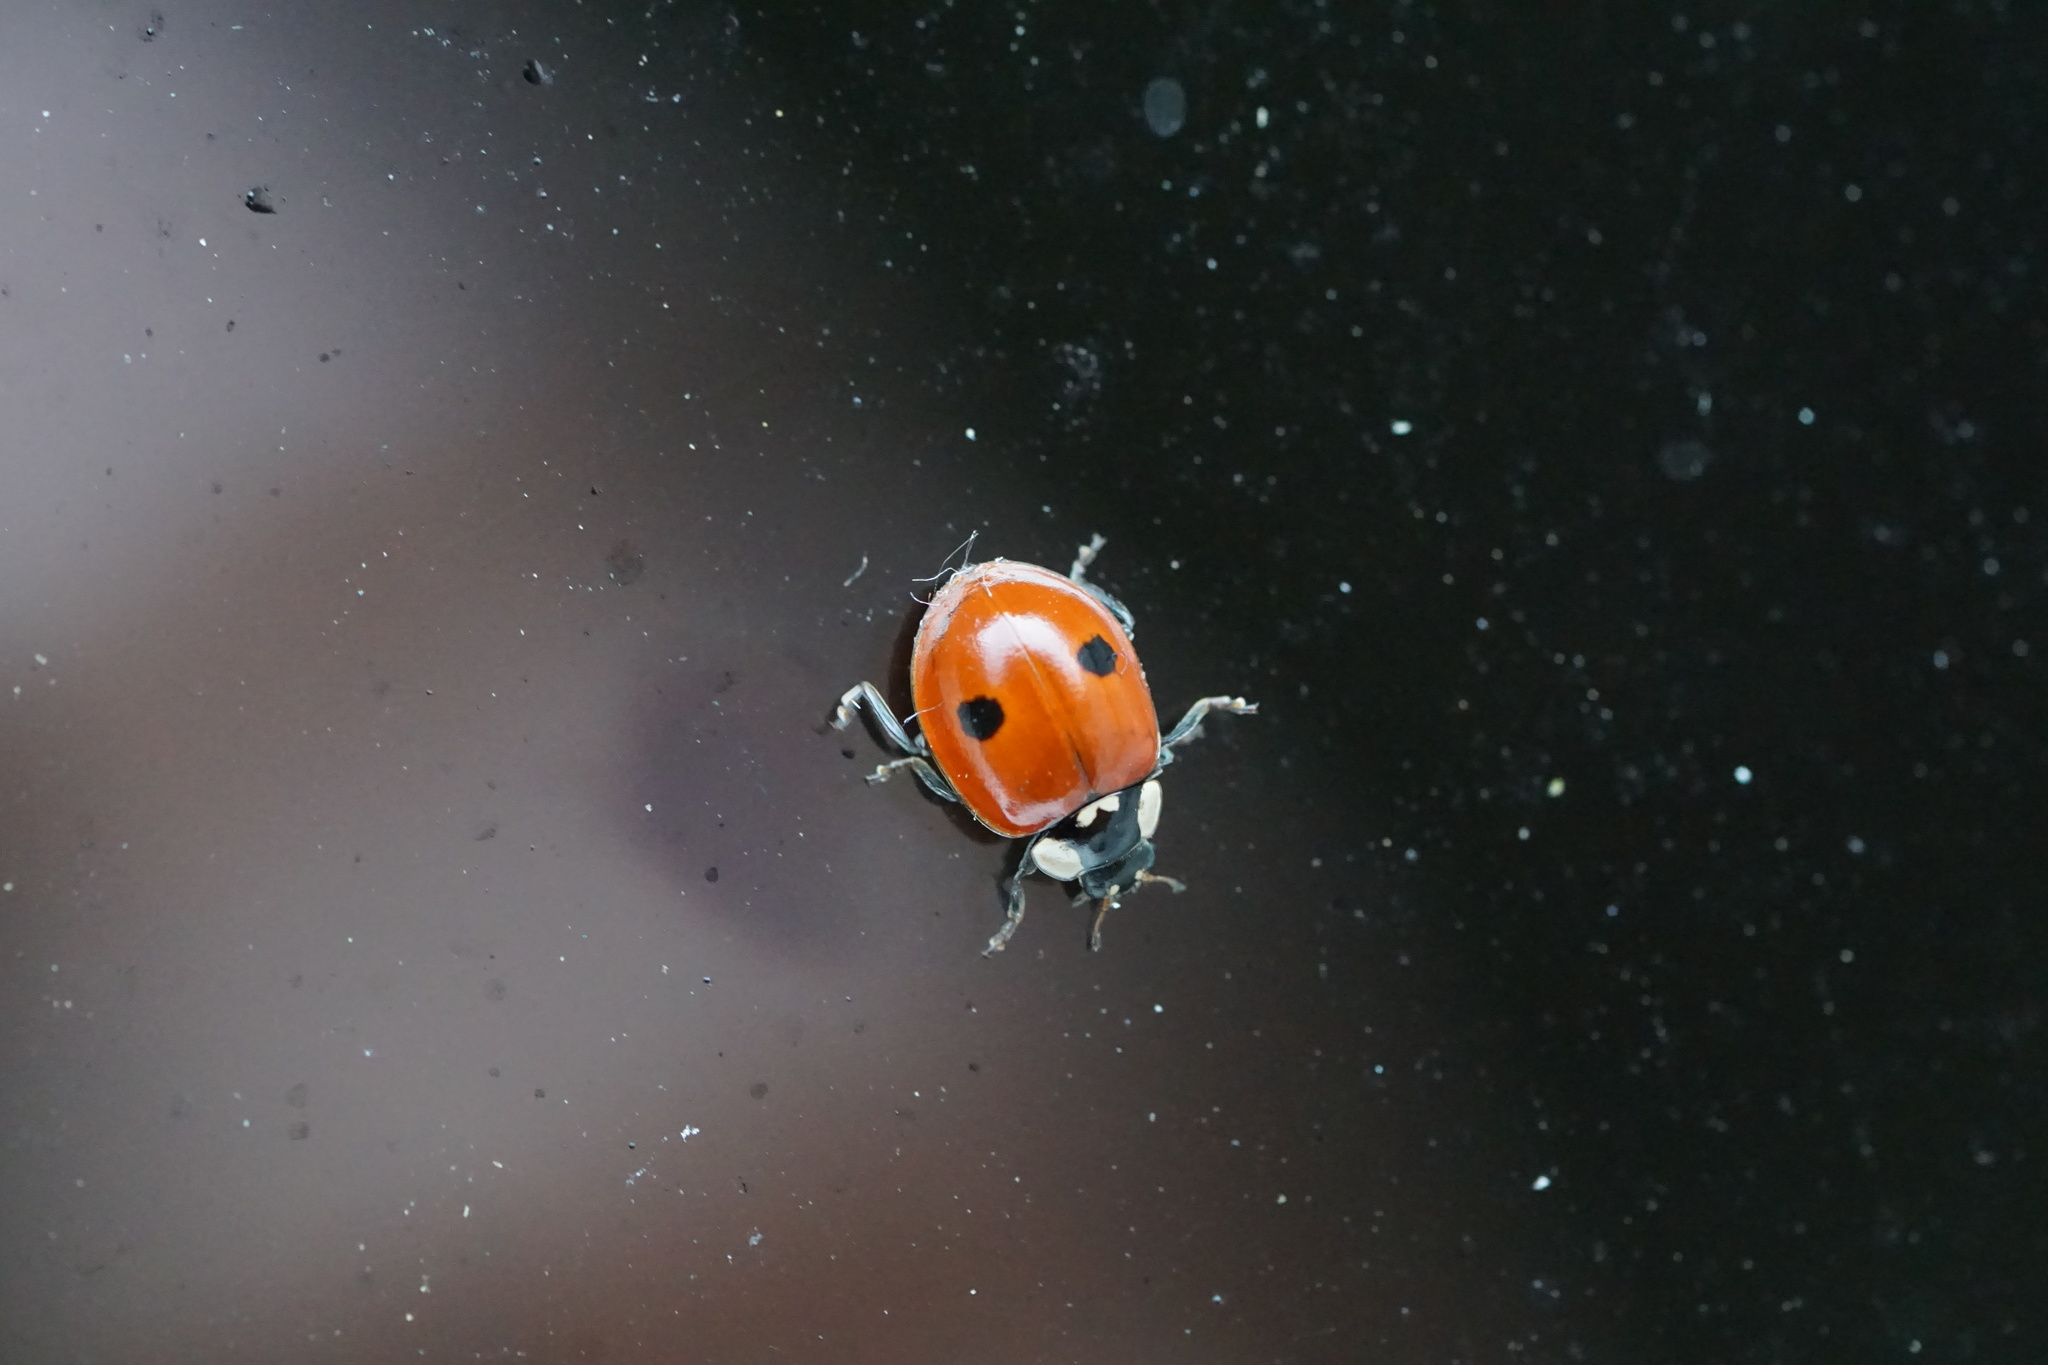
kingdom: Animalia
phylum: Arthropoda
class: Insecta
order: Coleoptera
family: Coccinellidae
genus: Adalia
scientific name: Adalia bipunctata
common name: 2-spot ladybird
